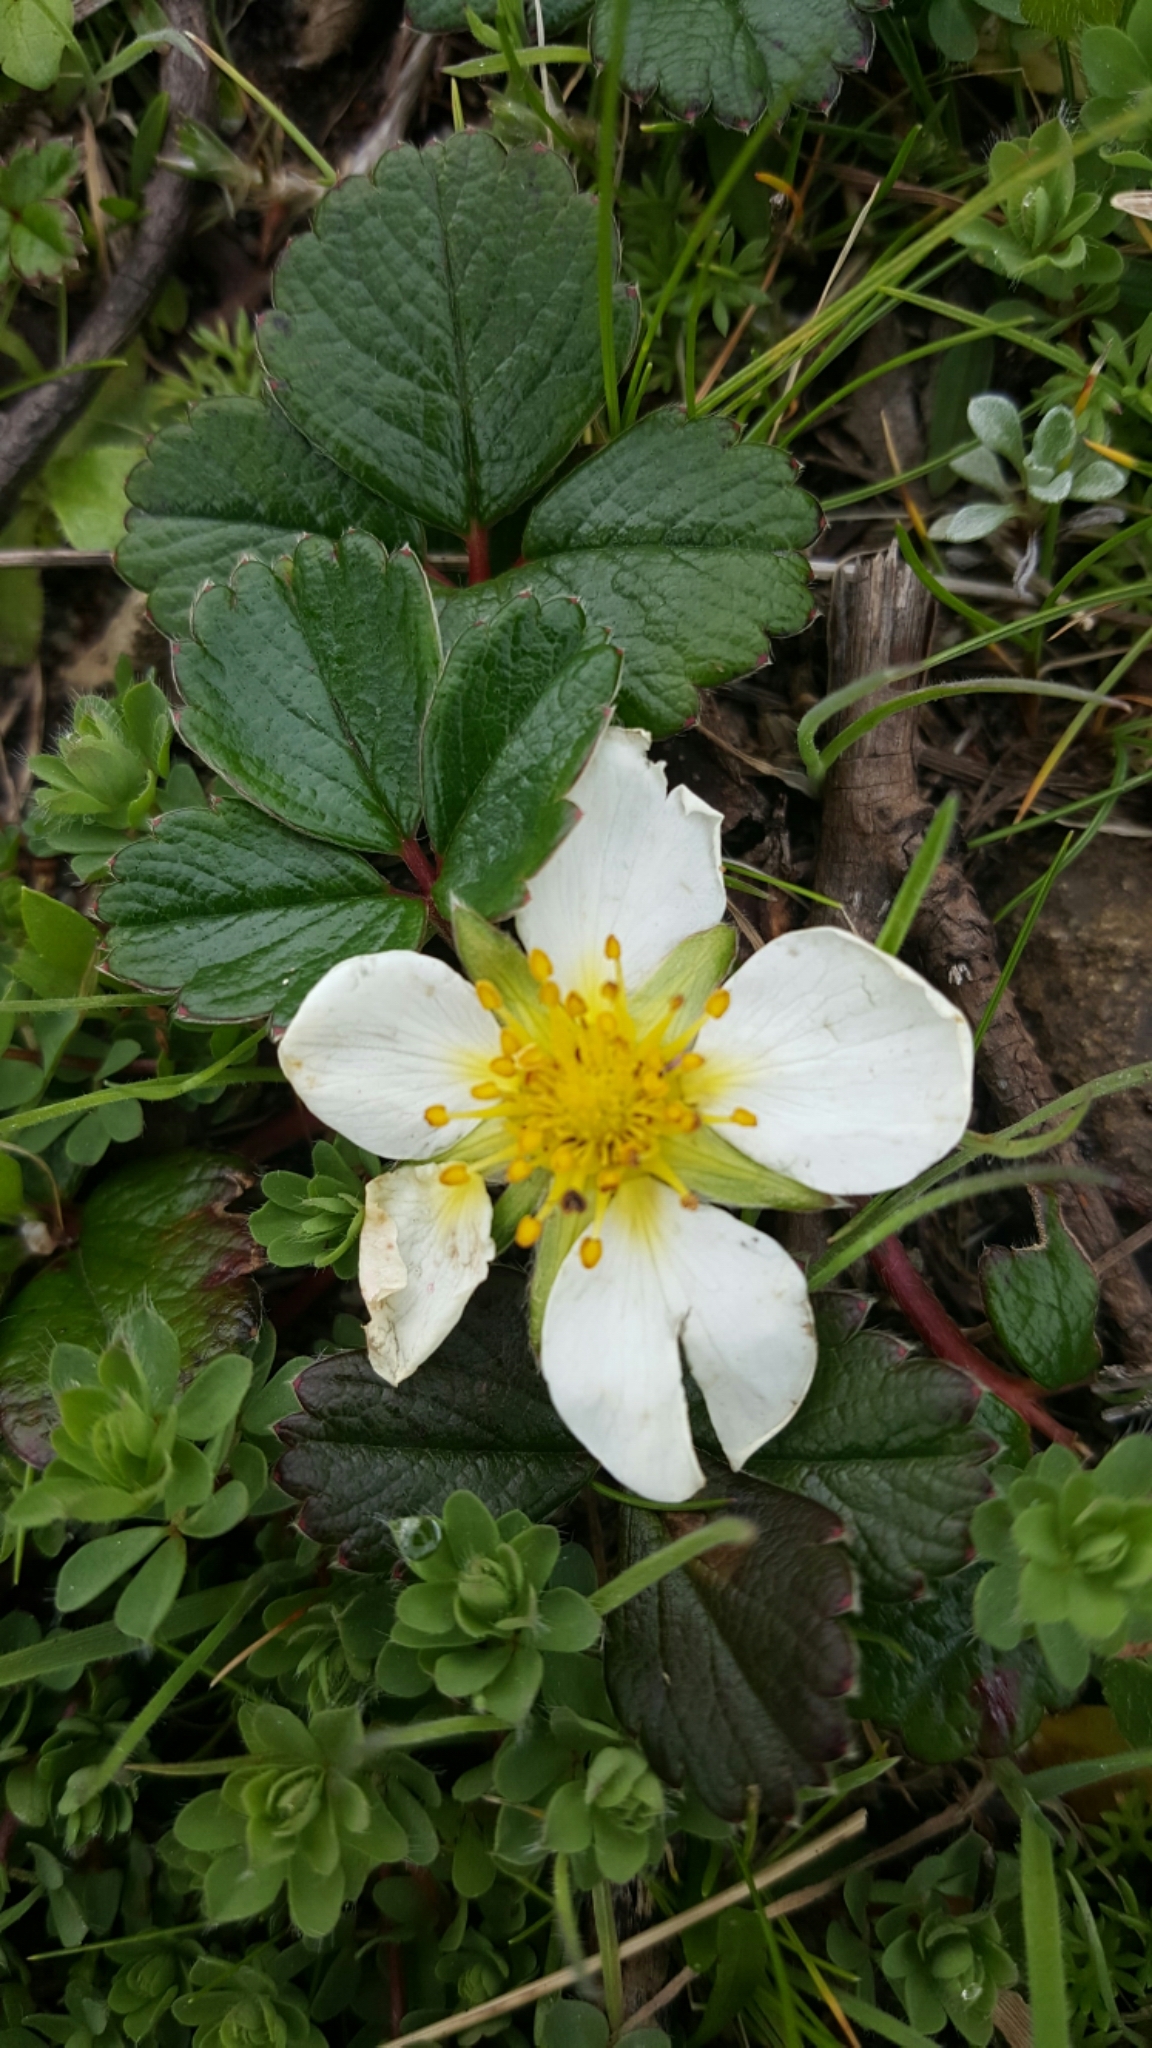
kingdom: Plantae
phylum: Tracheophyta
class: Magnoliopsida
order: Rosales
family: Rosaceae
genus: Fragaria
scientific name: Fragaria chiloensis
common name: Beach strawberry
